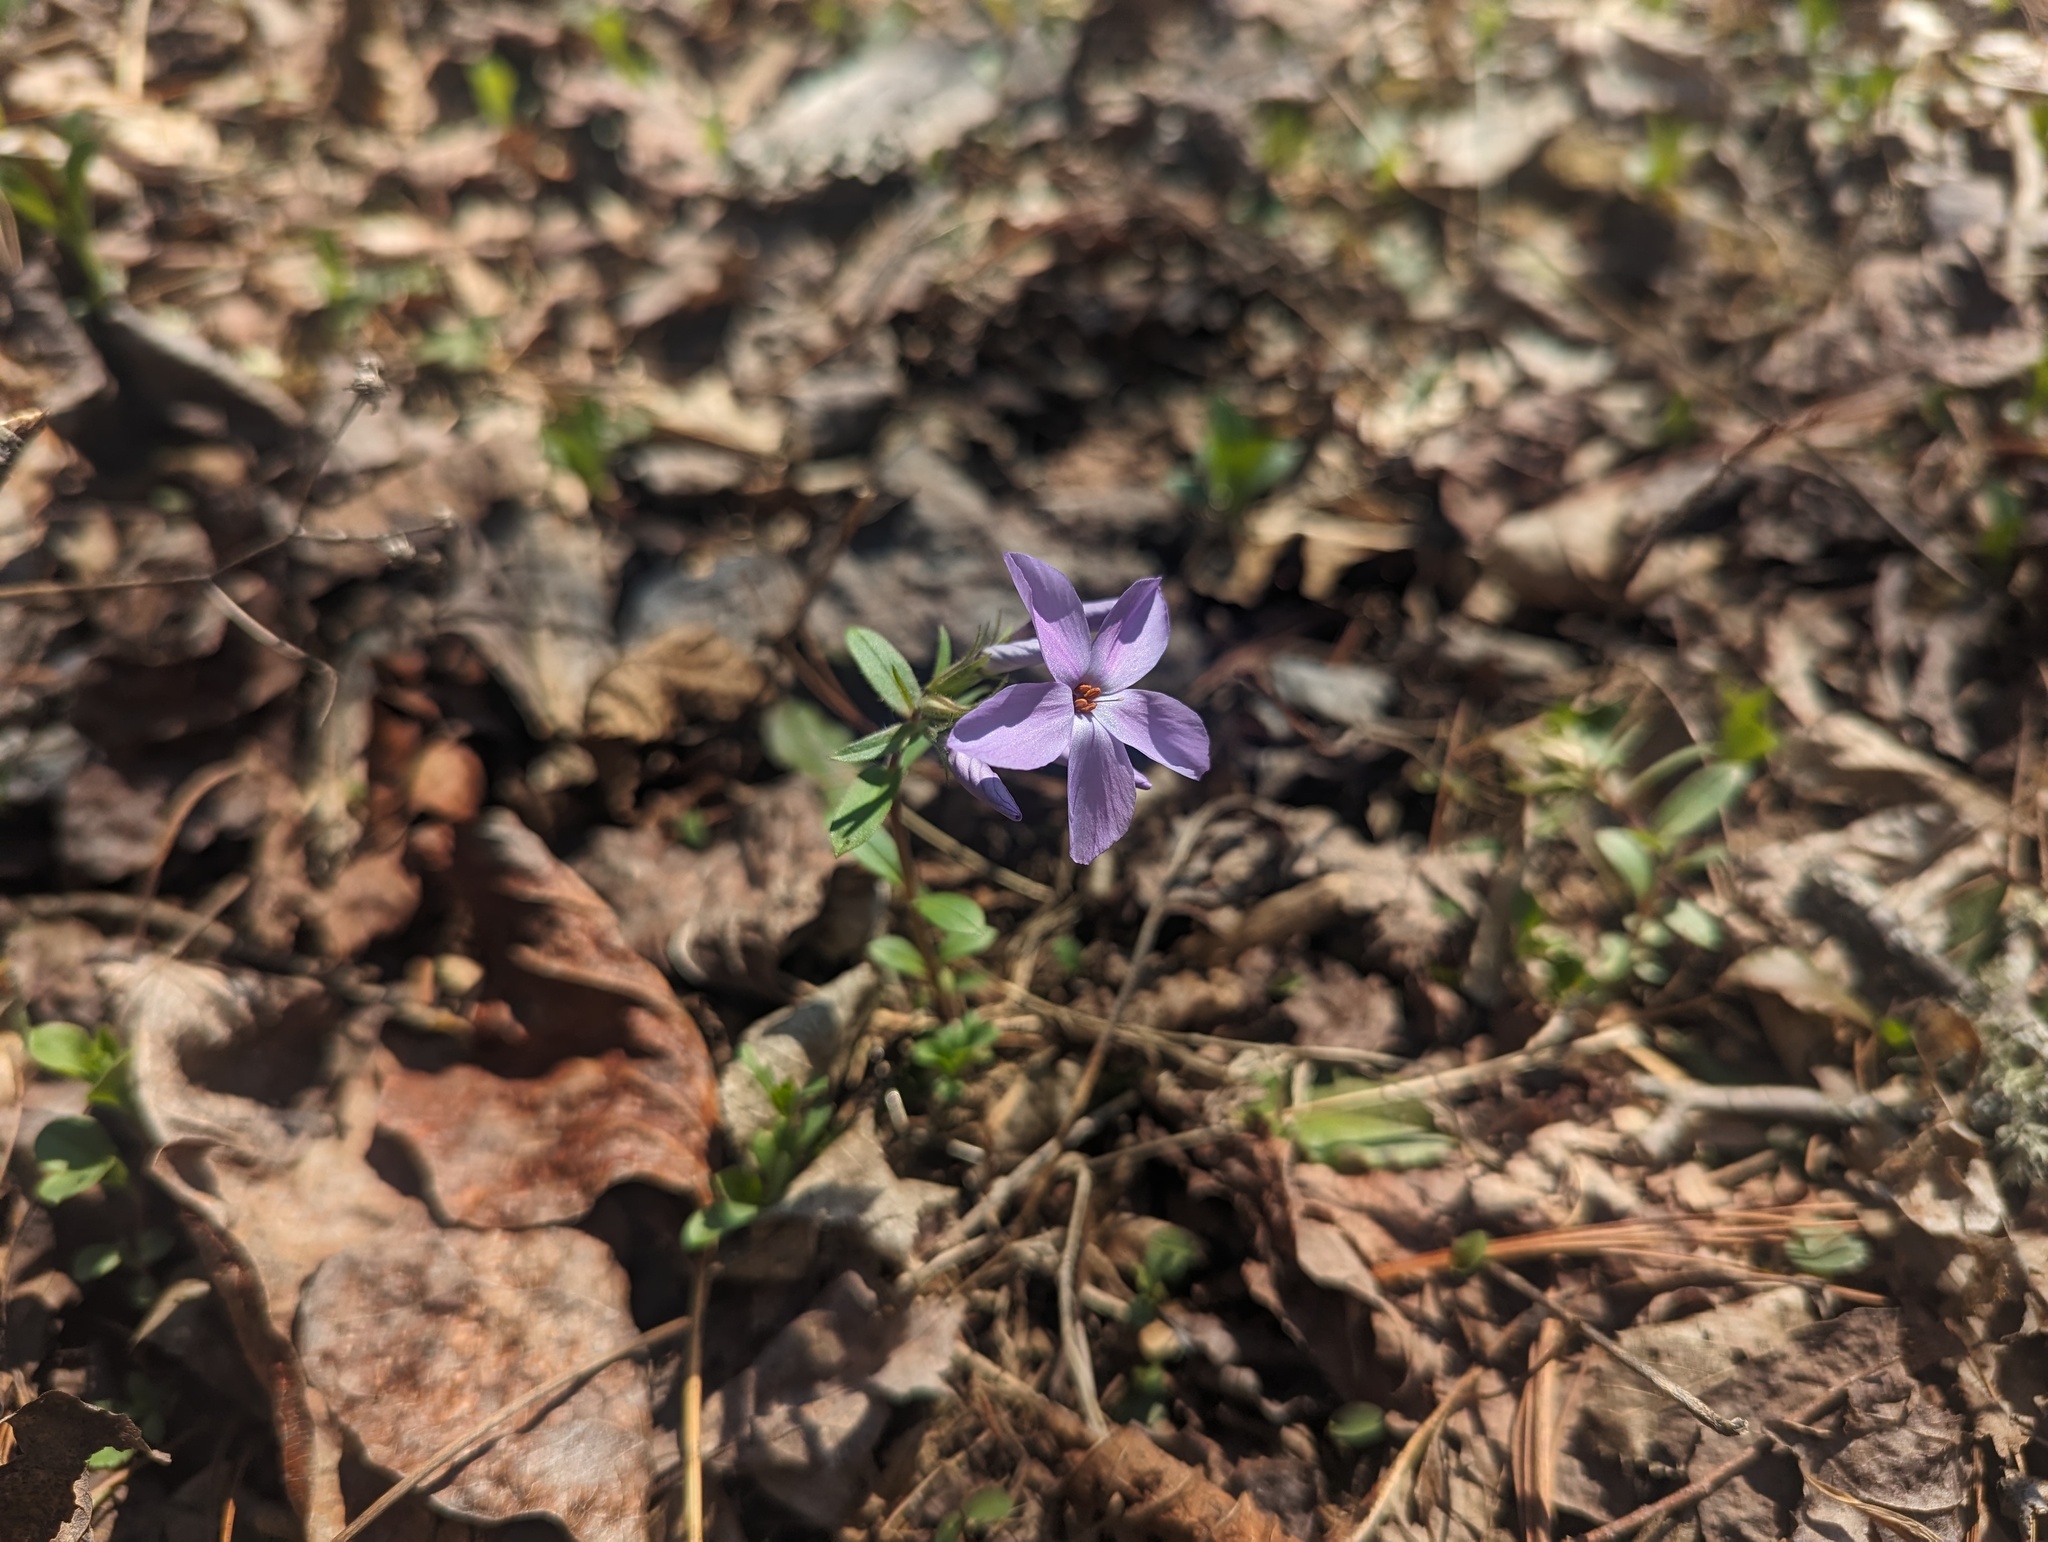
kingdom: Plantae
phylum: Tracheophyta
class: Magnoliopsida
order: Ericales
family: Polemoniaceae
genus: Phlox
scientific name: Phlox stolonifera
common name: Creeping phlox
